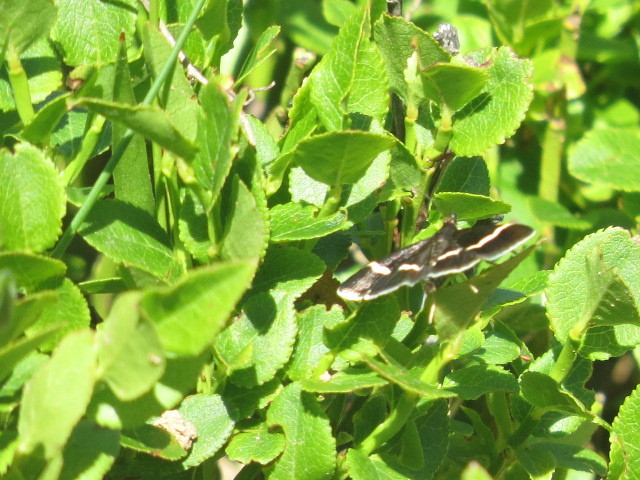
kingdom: Animalia
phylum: Arthropoda
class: Insecta
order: Lepidoptera
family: Crambidae
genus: Pyrausta
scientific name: Pyrausta cingulata
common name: Silver-barred sable
